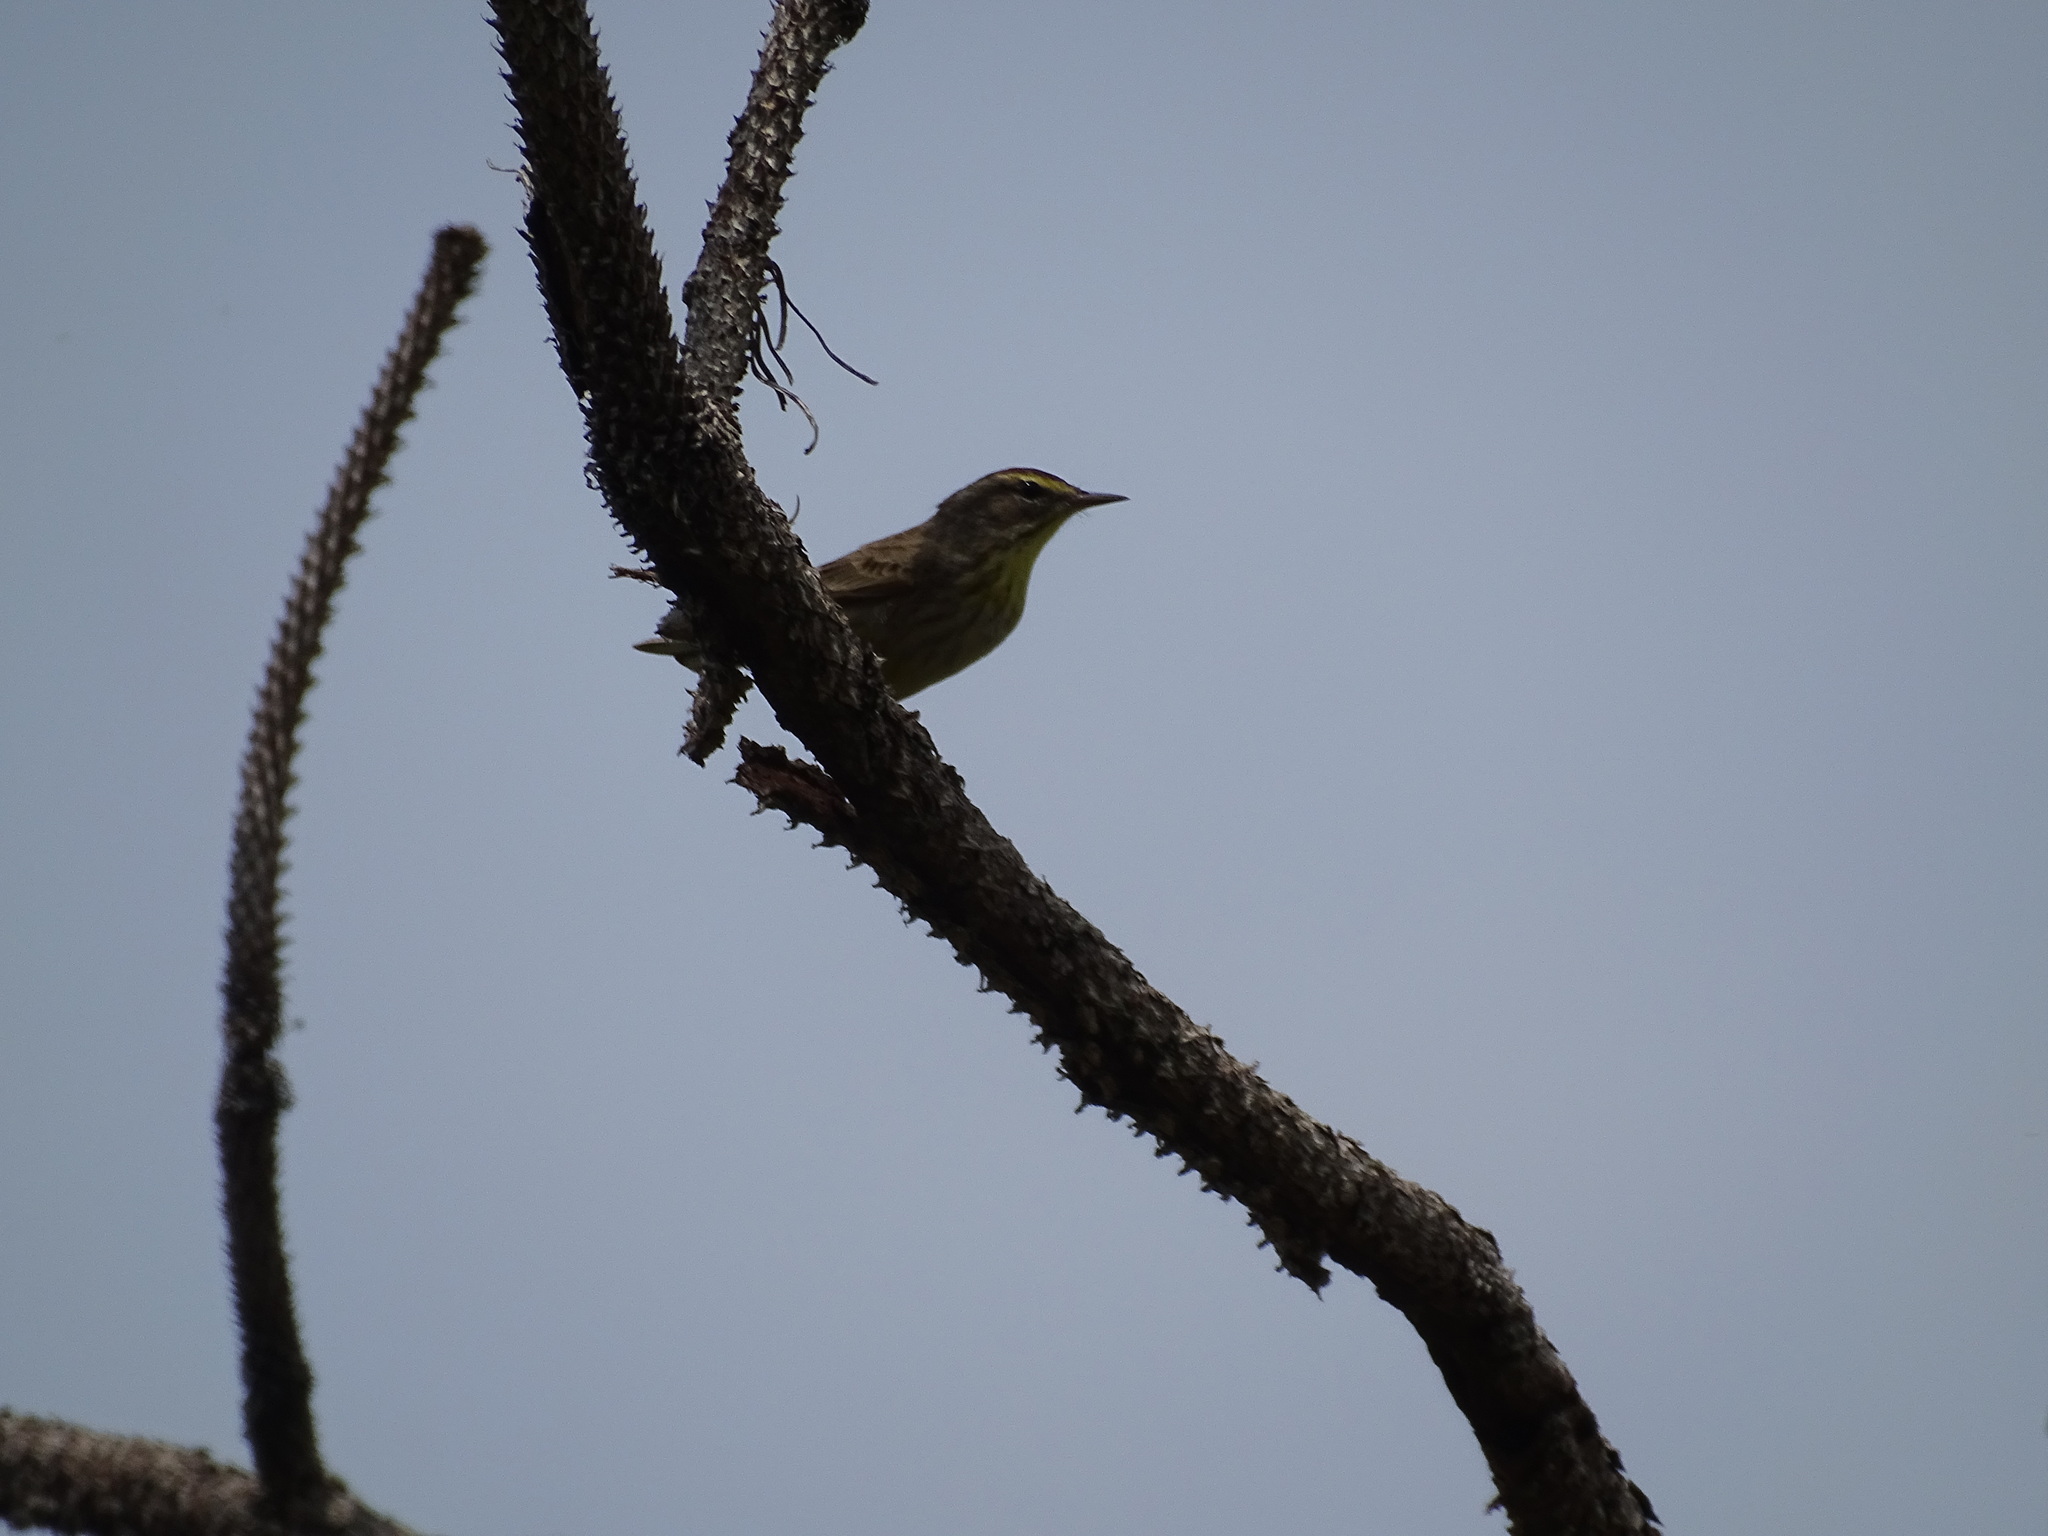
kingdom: Animalia
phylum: Chordata
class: Aves
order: Passeriformes
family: Parulidae
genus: Setophaga
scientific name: Setophaga palmarum
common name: Palm warbler
